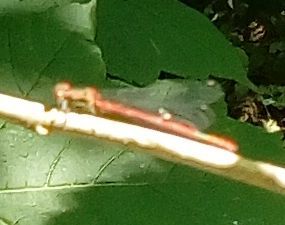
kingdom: Animalia
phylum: Arthropoda
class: Insecta
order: Odonata
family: Coenagrionidae
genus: Pyrrhosoma
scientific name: Pyrrhosoma nymphula
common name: Large red damsel
